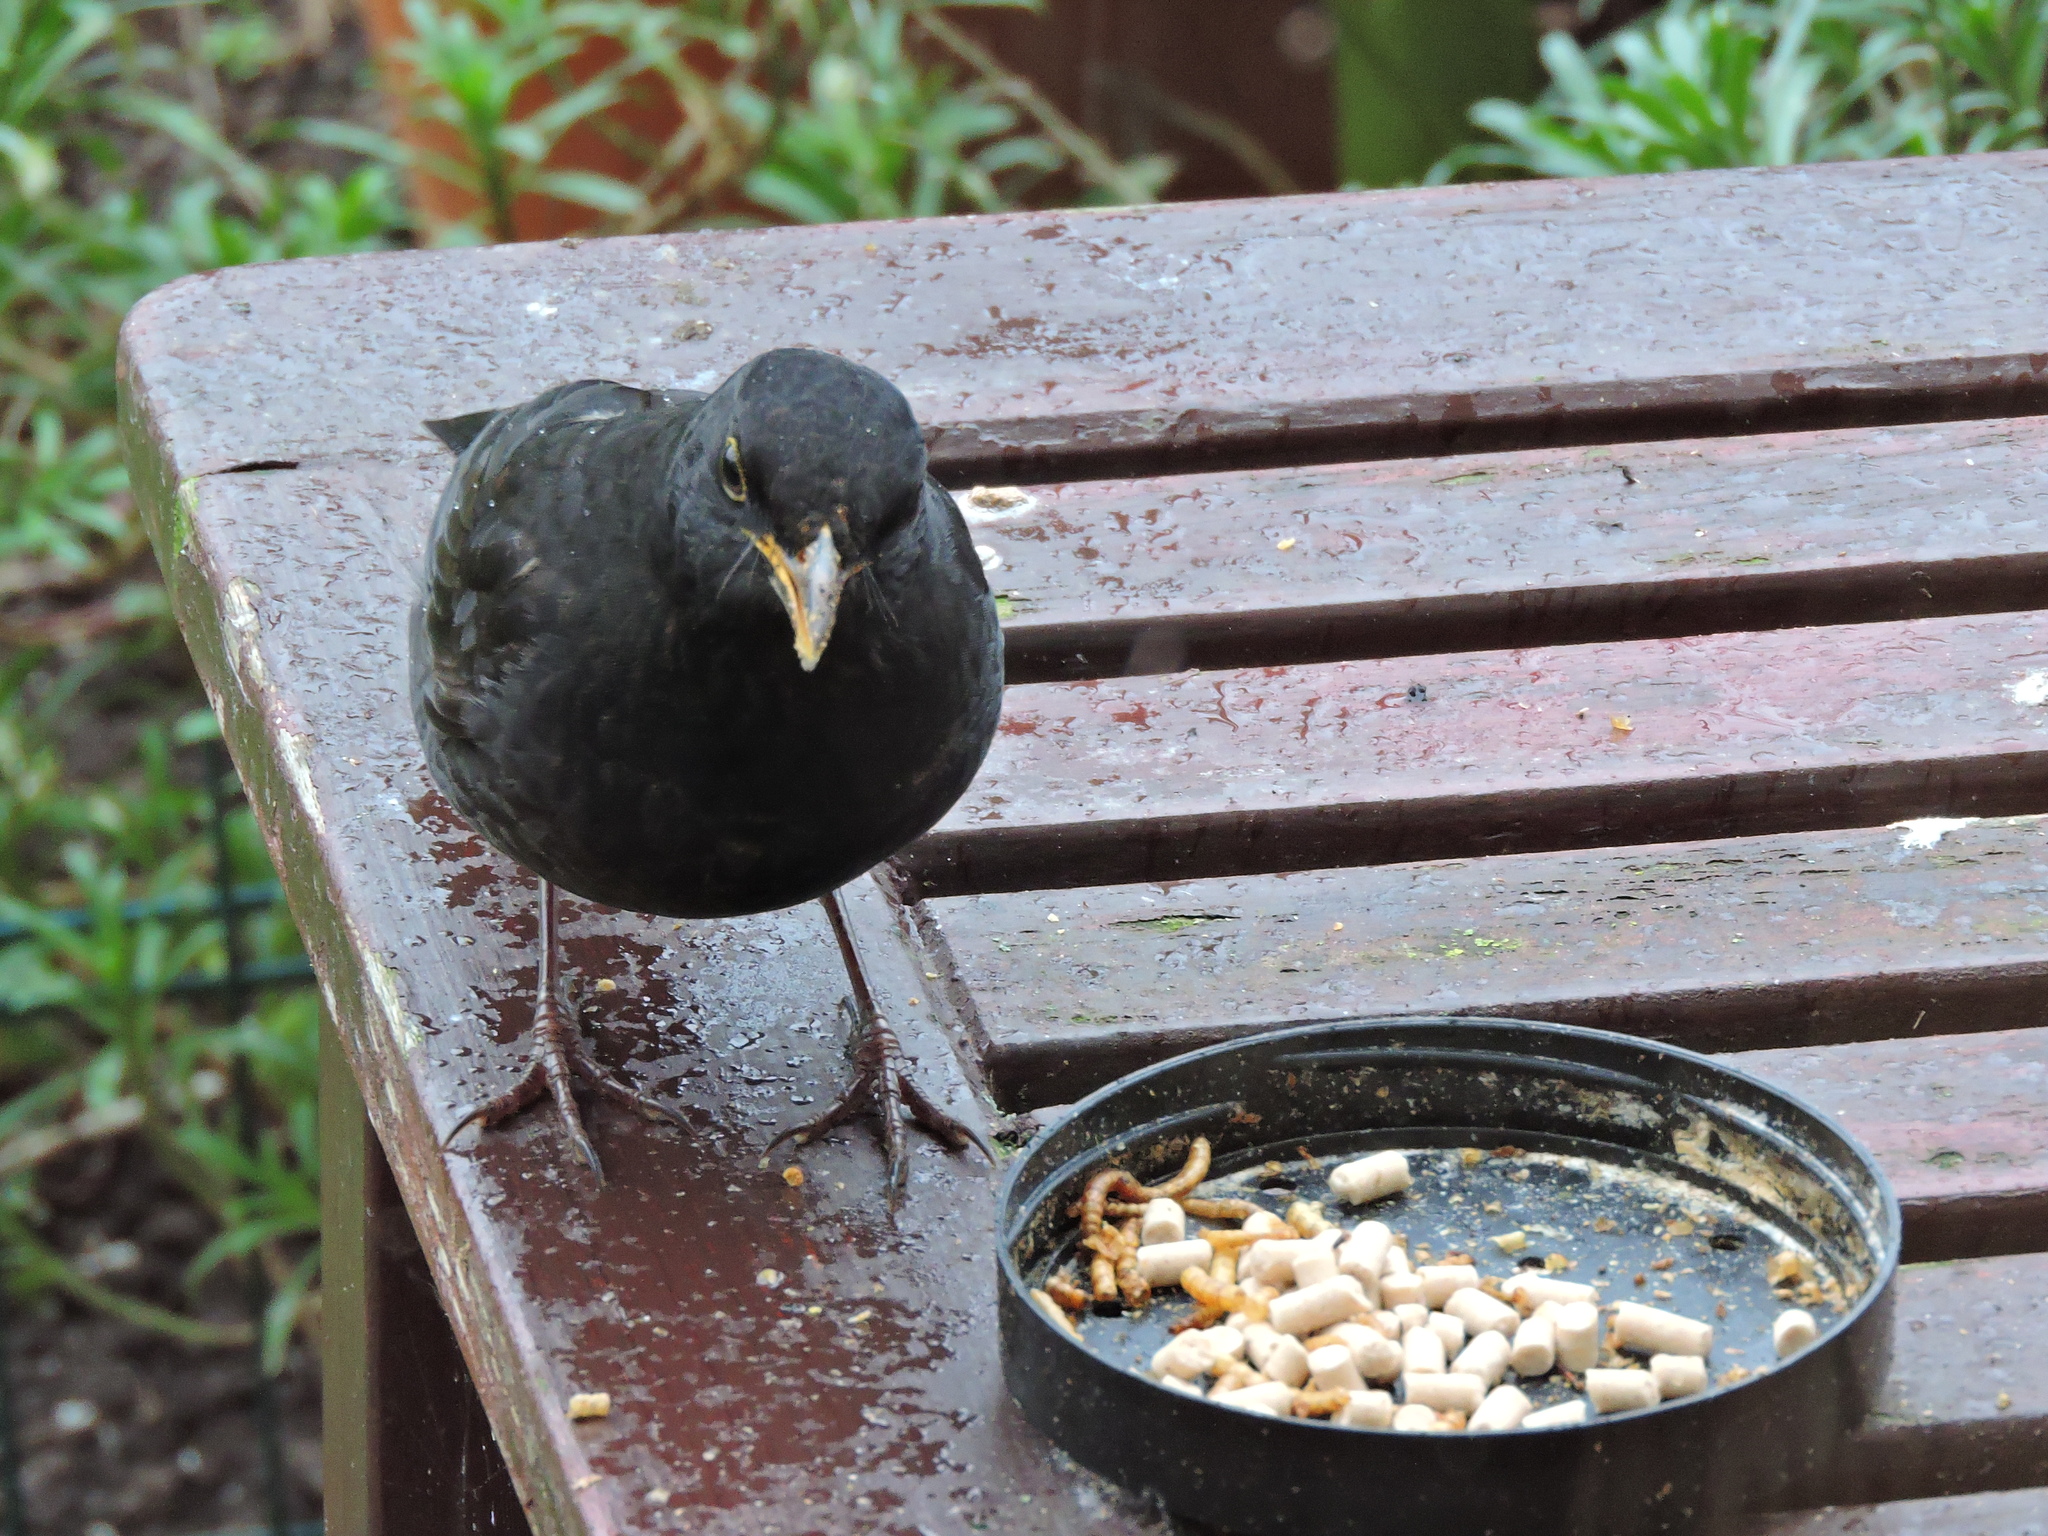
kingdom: Animalia
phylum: Chordata
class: Aves
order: Passeriformes
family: Turdidae
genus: Turdus
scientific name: Turdus merula
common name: Common blackbird
